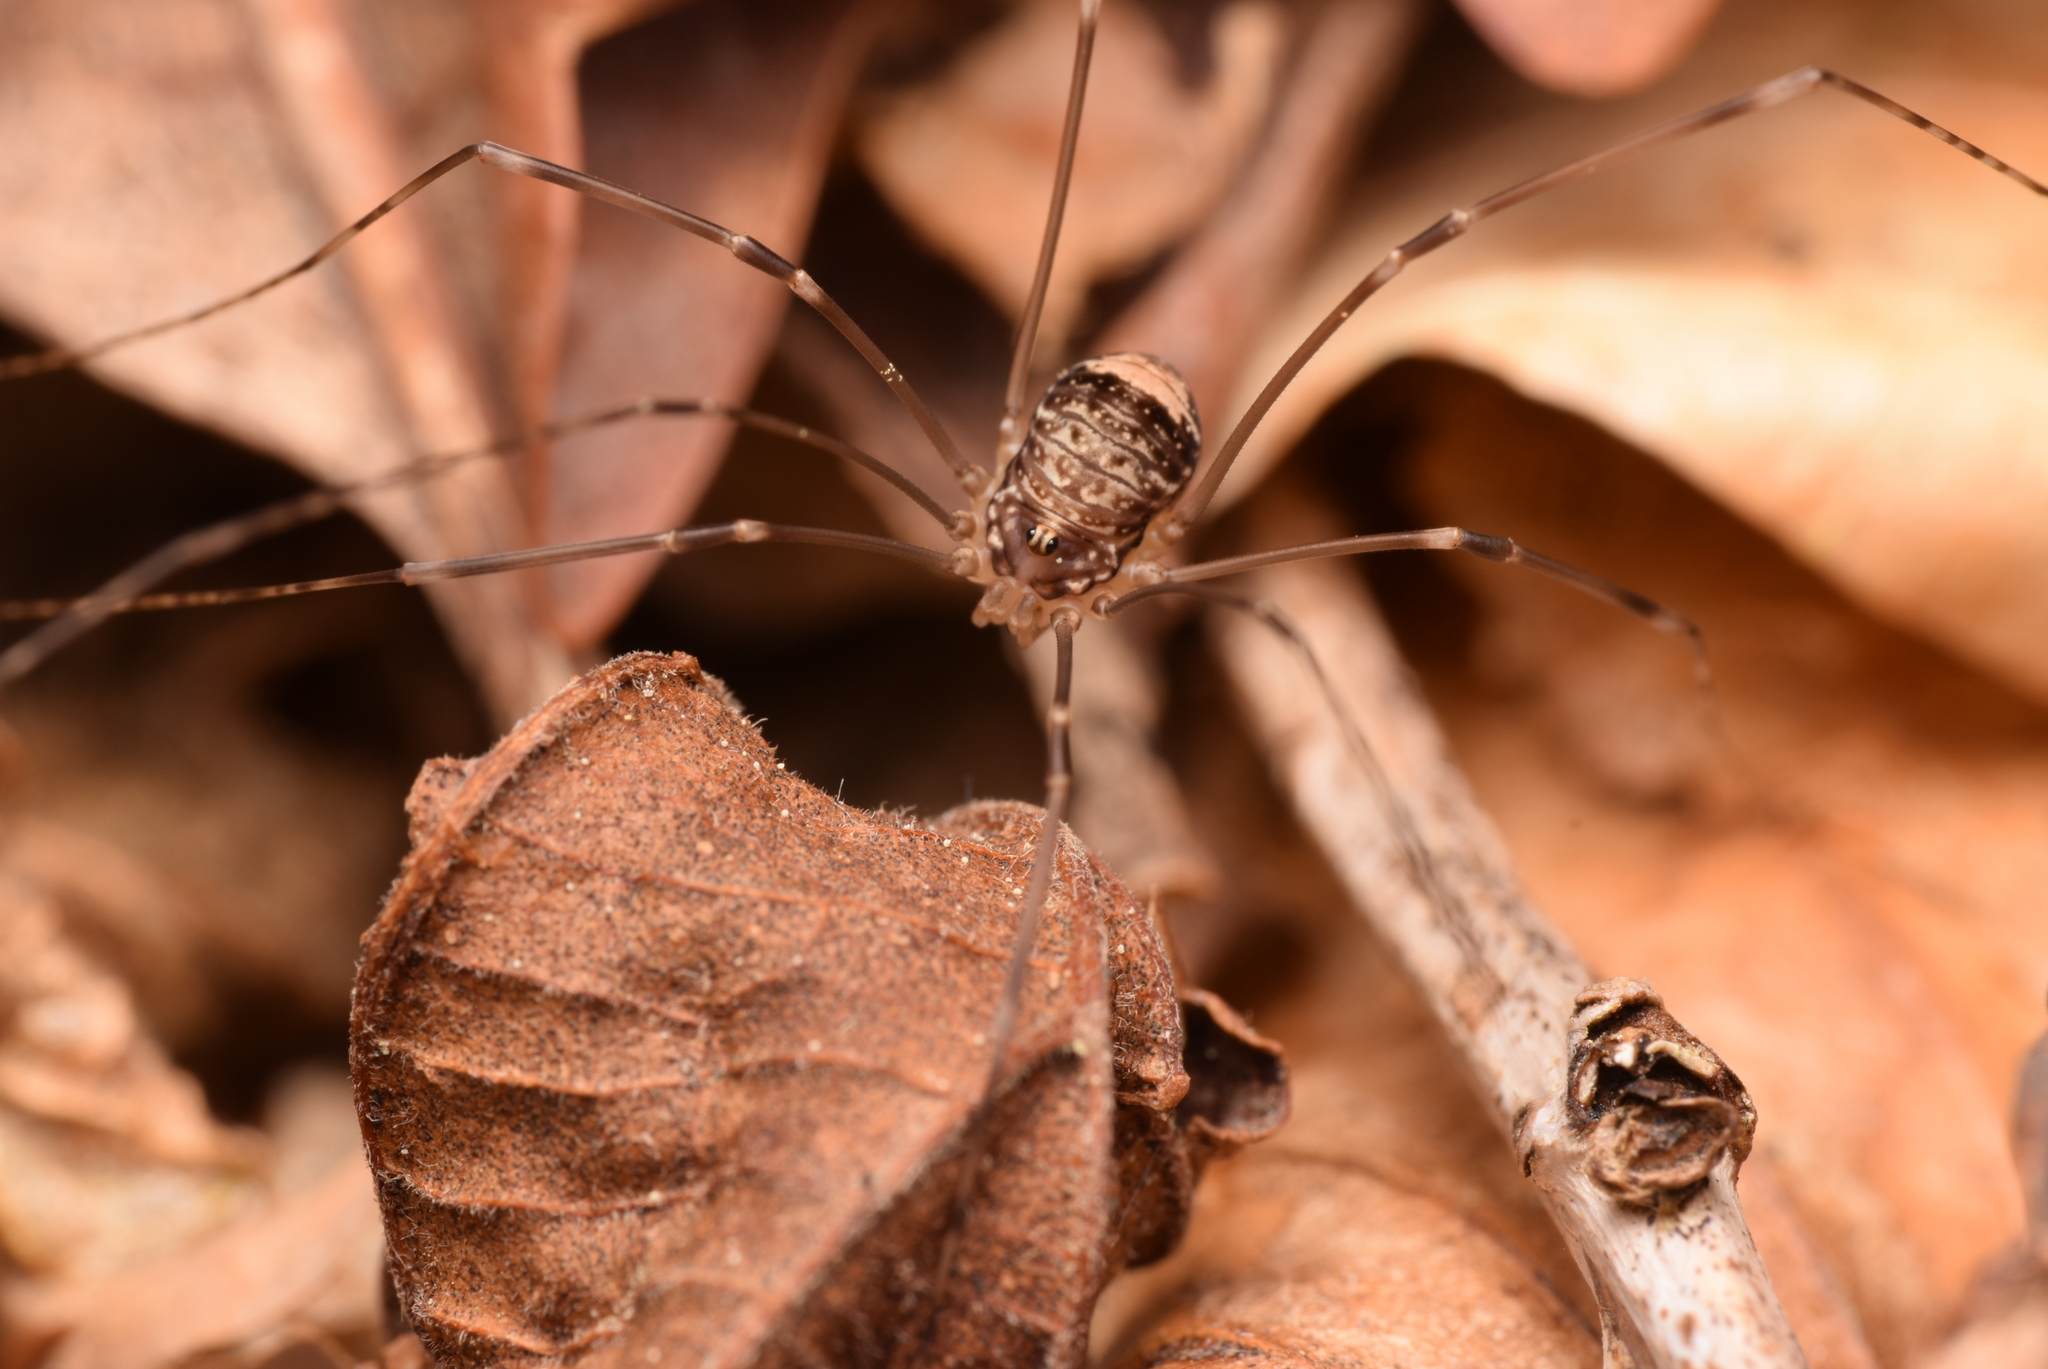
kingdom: Animalia
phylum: Arthropoda
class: Arachnida
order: Opiliones
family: Sclerosomatidae
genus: Leiobunum
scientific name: Leiobunum blackwalli
